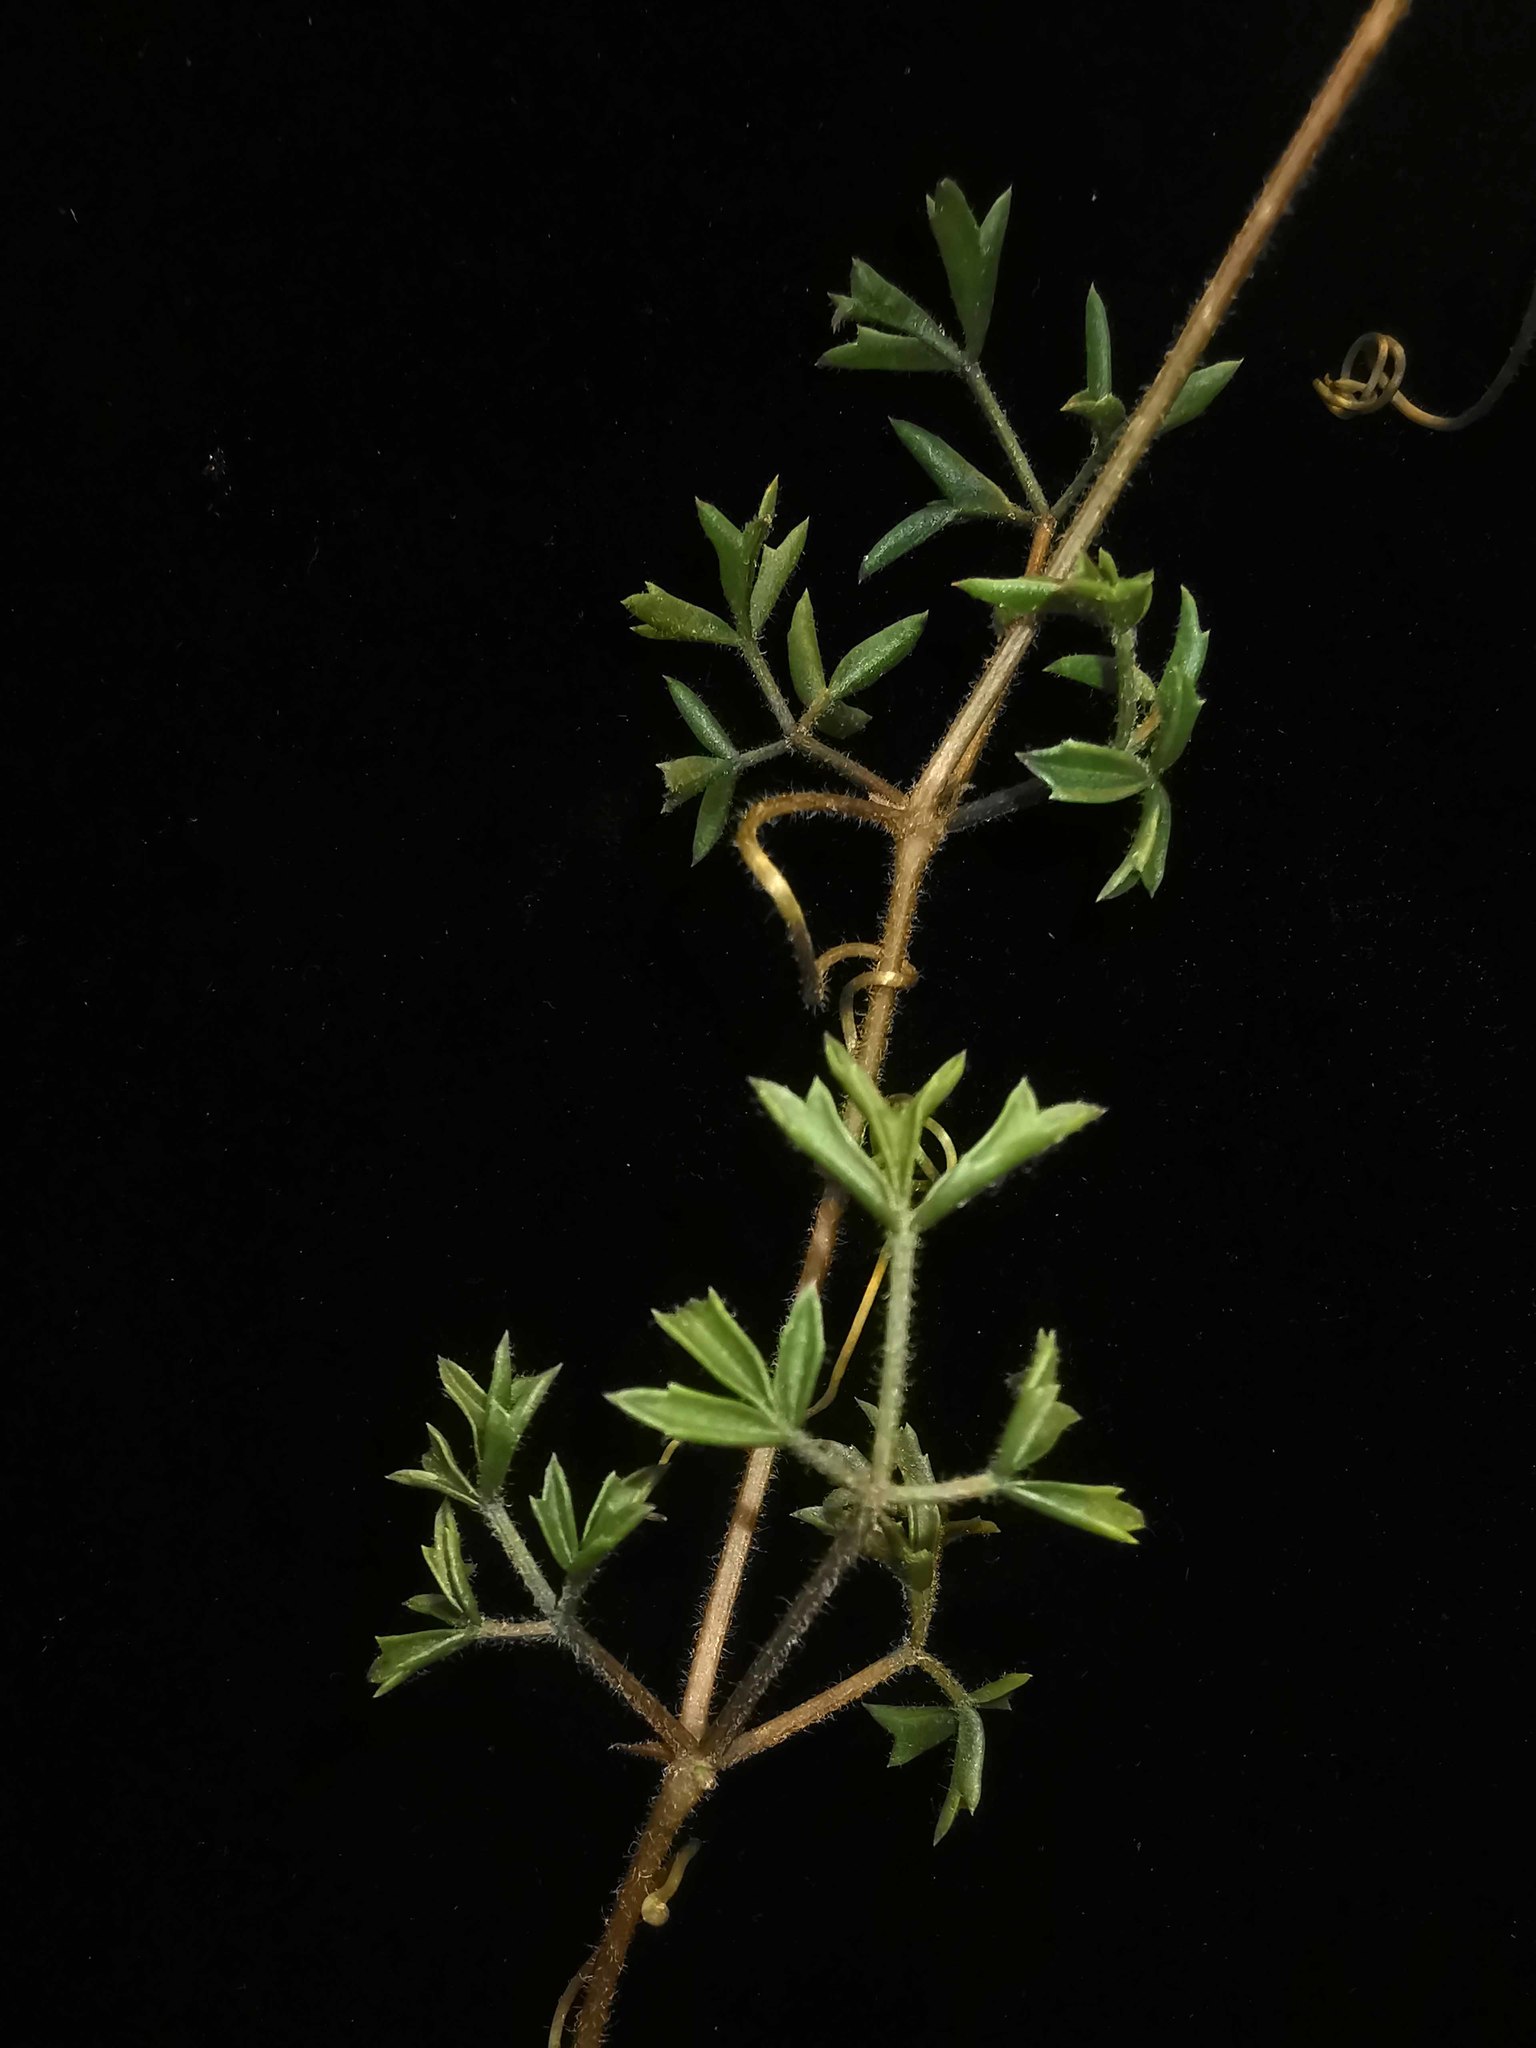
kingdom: Plantae
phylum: Tracheophyta
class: Magnoliopsida
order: Vitales
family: Vitaceae
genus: Cyphostemma
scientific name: Cyphostemma montagnacii
